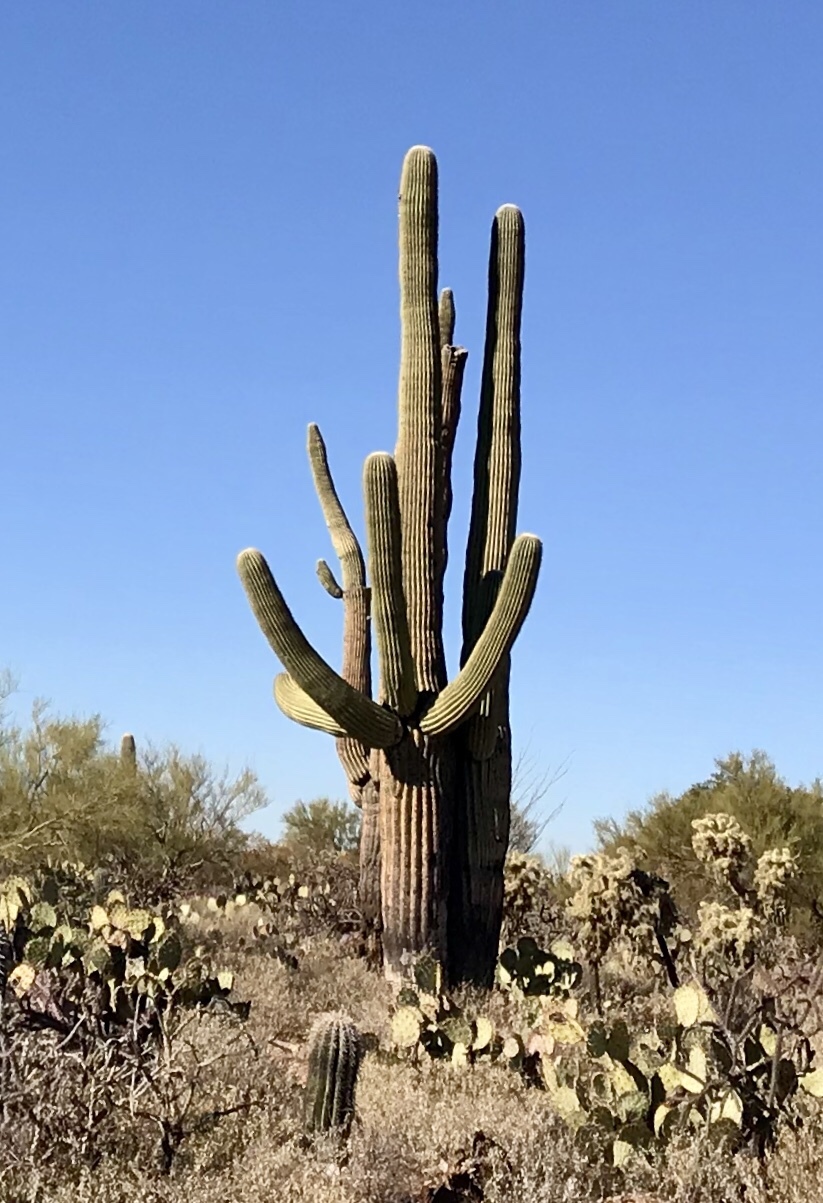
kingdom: Plantae
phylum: Tracheophyta
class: Magnoliopsida
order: Caryophyllales
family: Cactaceae
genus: Carnegiea
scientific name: Carnegiea gigantea
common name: Saguaro
